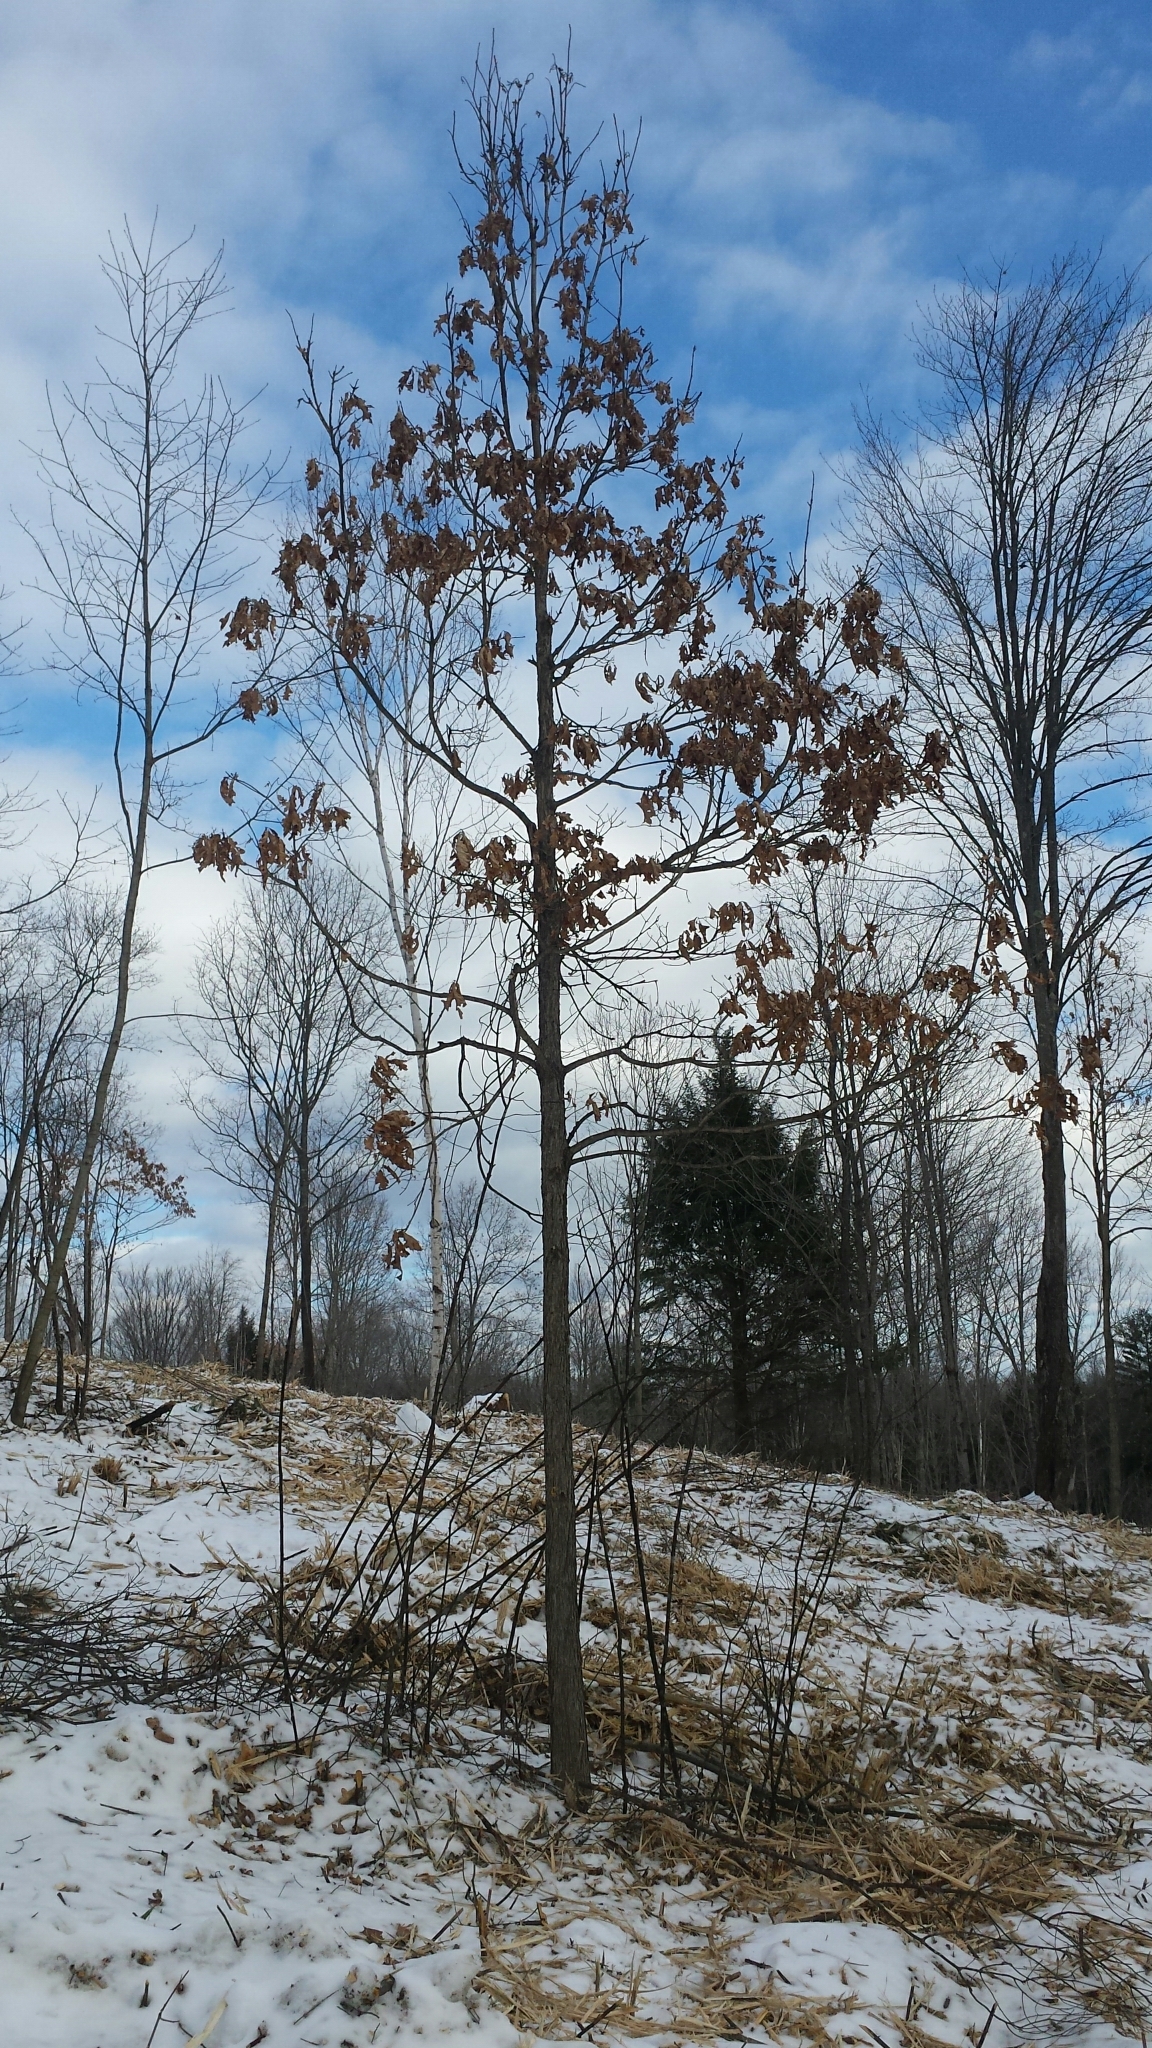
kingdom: Plantae
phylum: Tracheophyta
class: Magnoliopsida
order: Fagales
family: Fagaceae
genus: Quercus
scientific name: Quercus alba
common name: White oak
